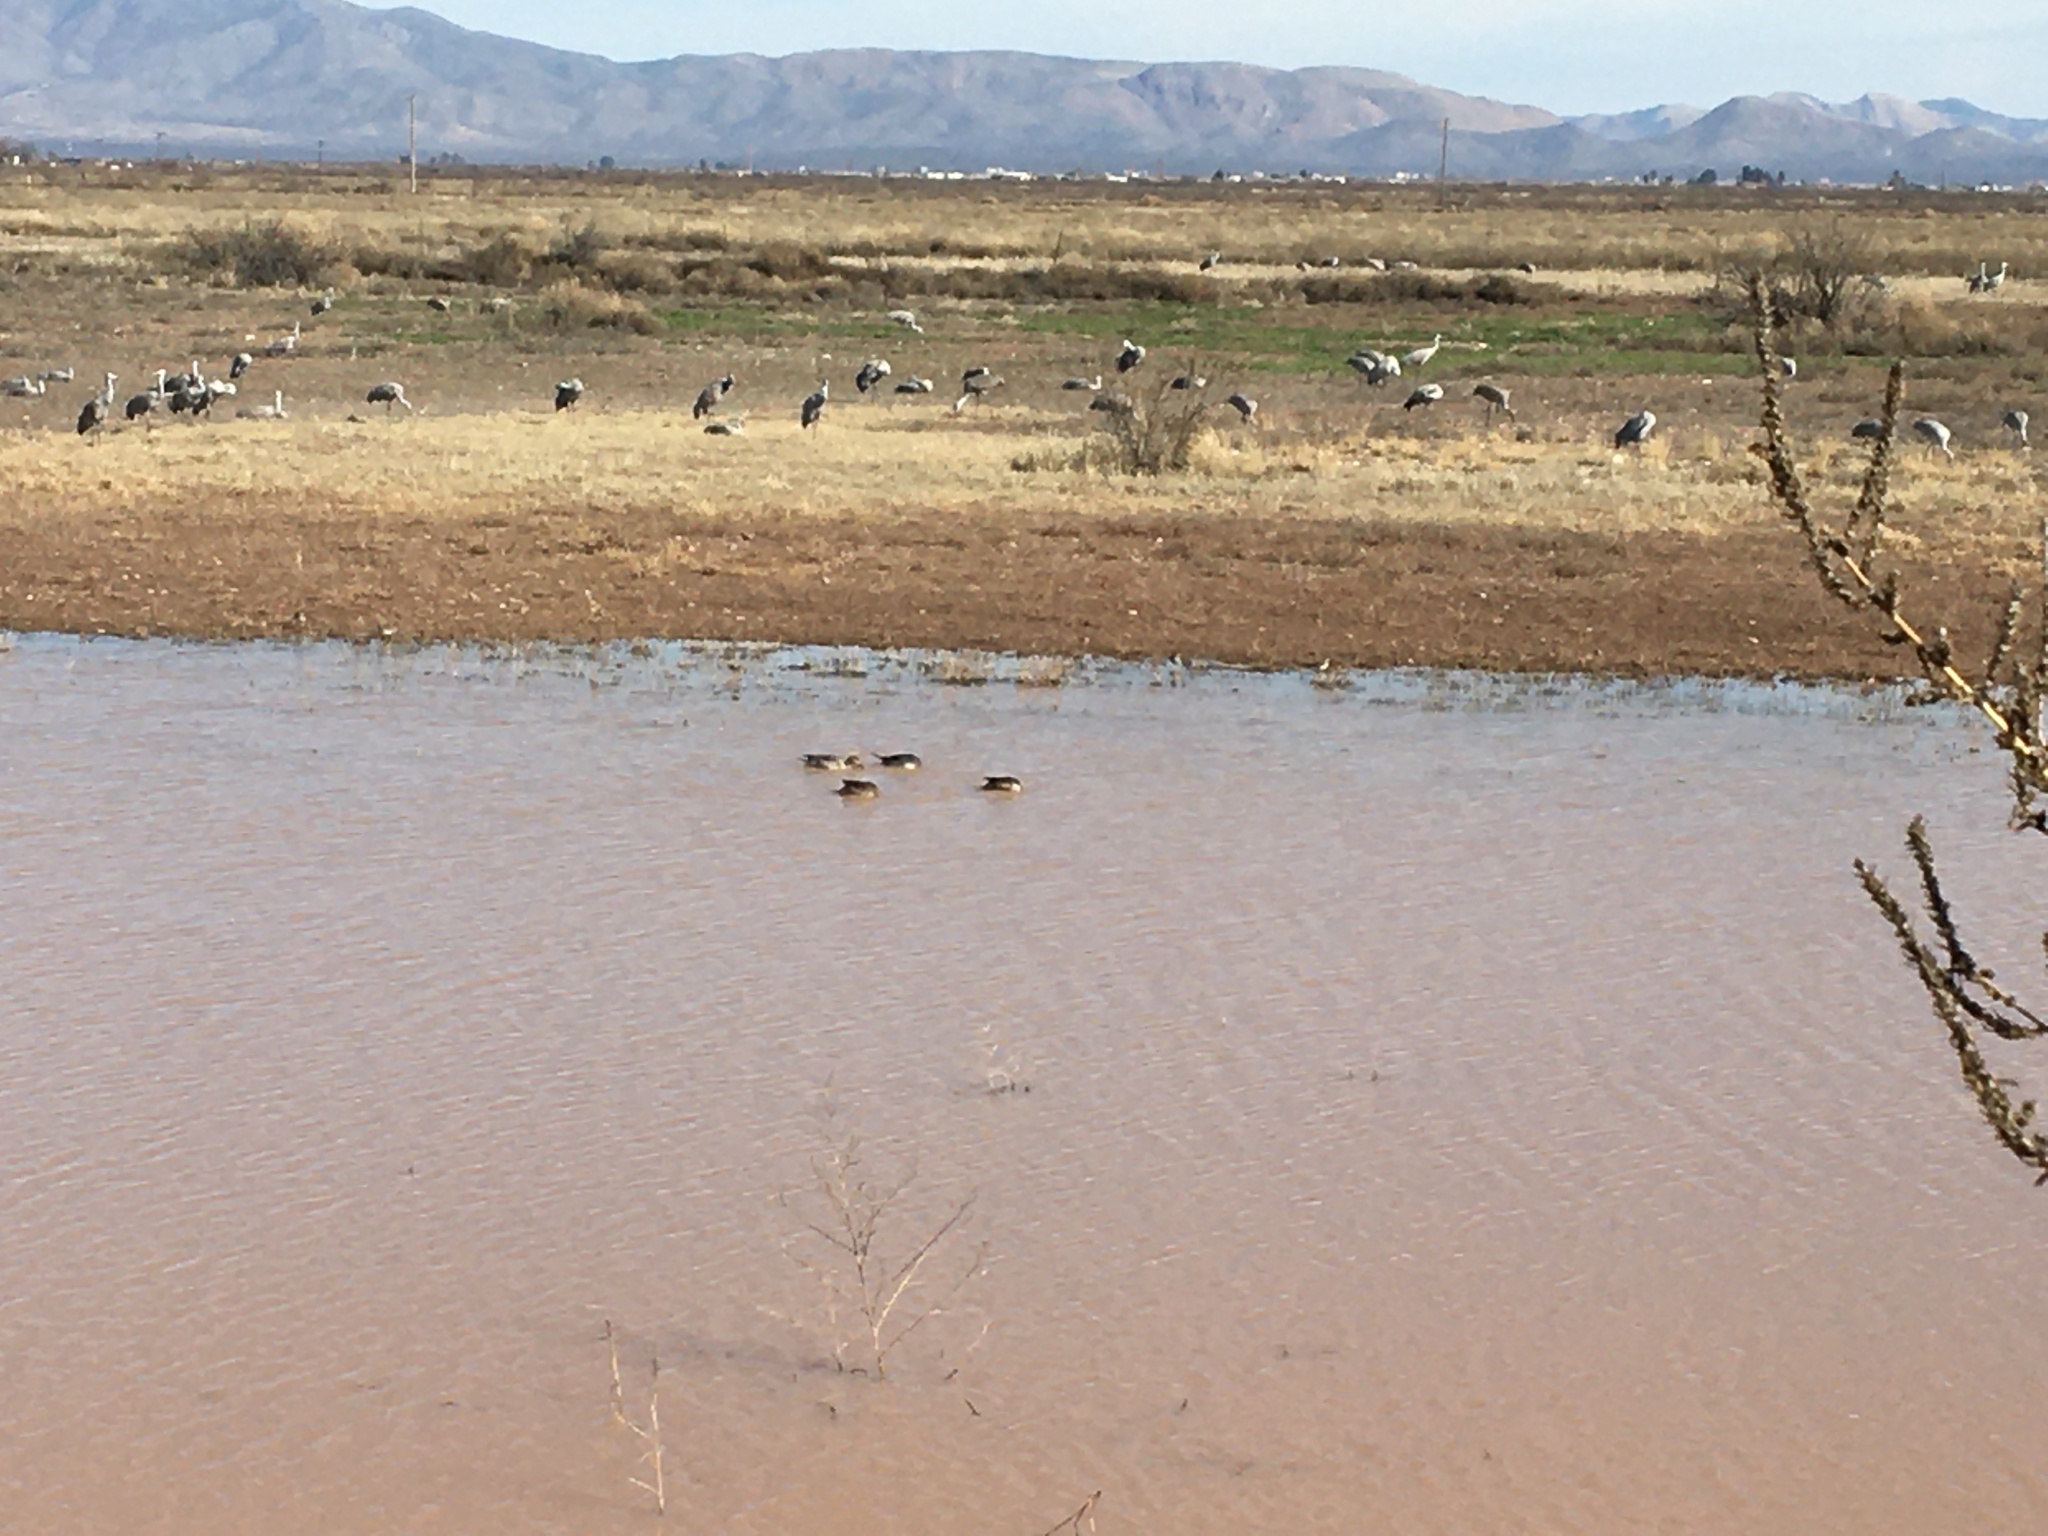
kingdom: Animalia
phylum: Chordata
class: Aves
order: Anseriformes
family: Anatidae
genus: Anas
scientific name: Anas acuta
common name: Northern pintail
